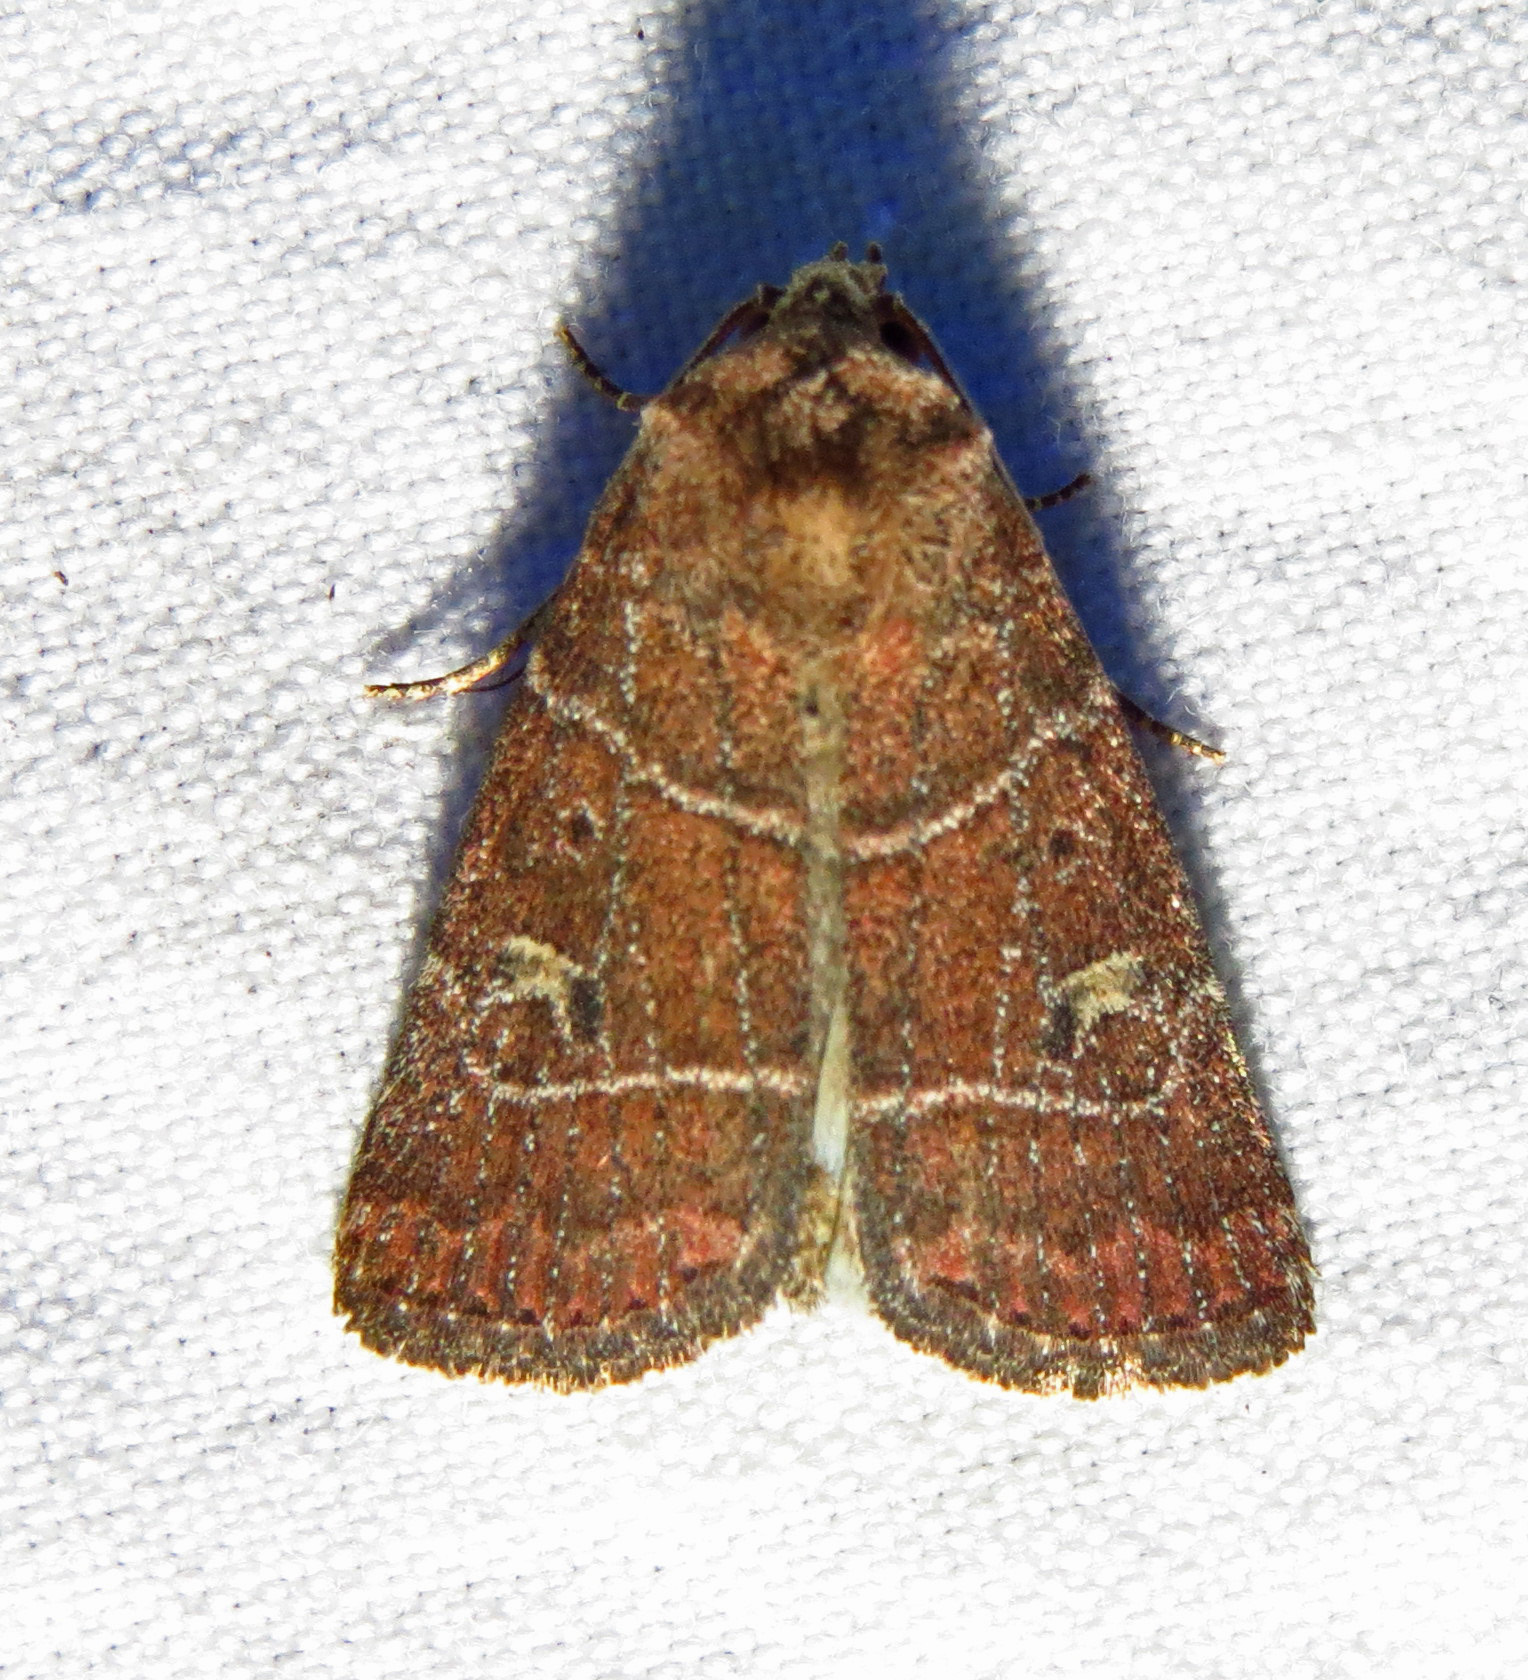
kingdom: Animalia
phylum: Arthropoda
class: Insecta
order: Lepidoptera
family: Noctuidae
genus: Elaphria
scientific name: Elaphria grata
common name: Grateful midget moth
